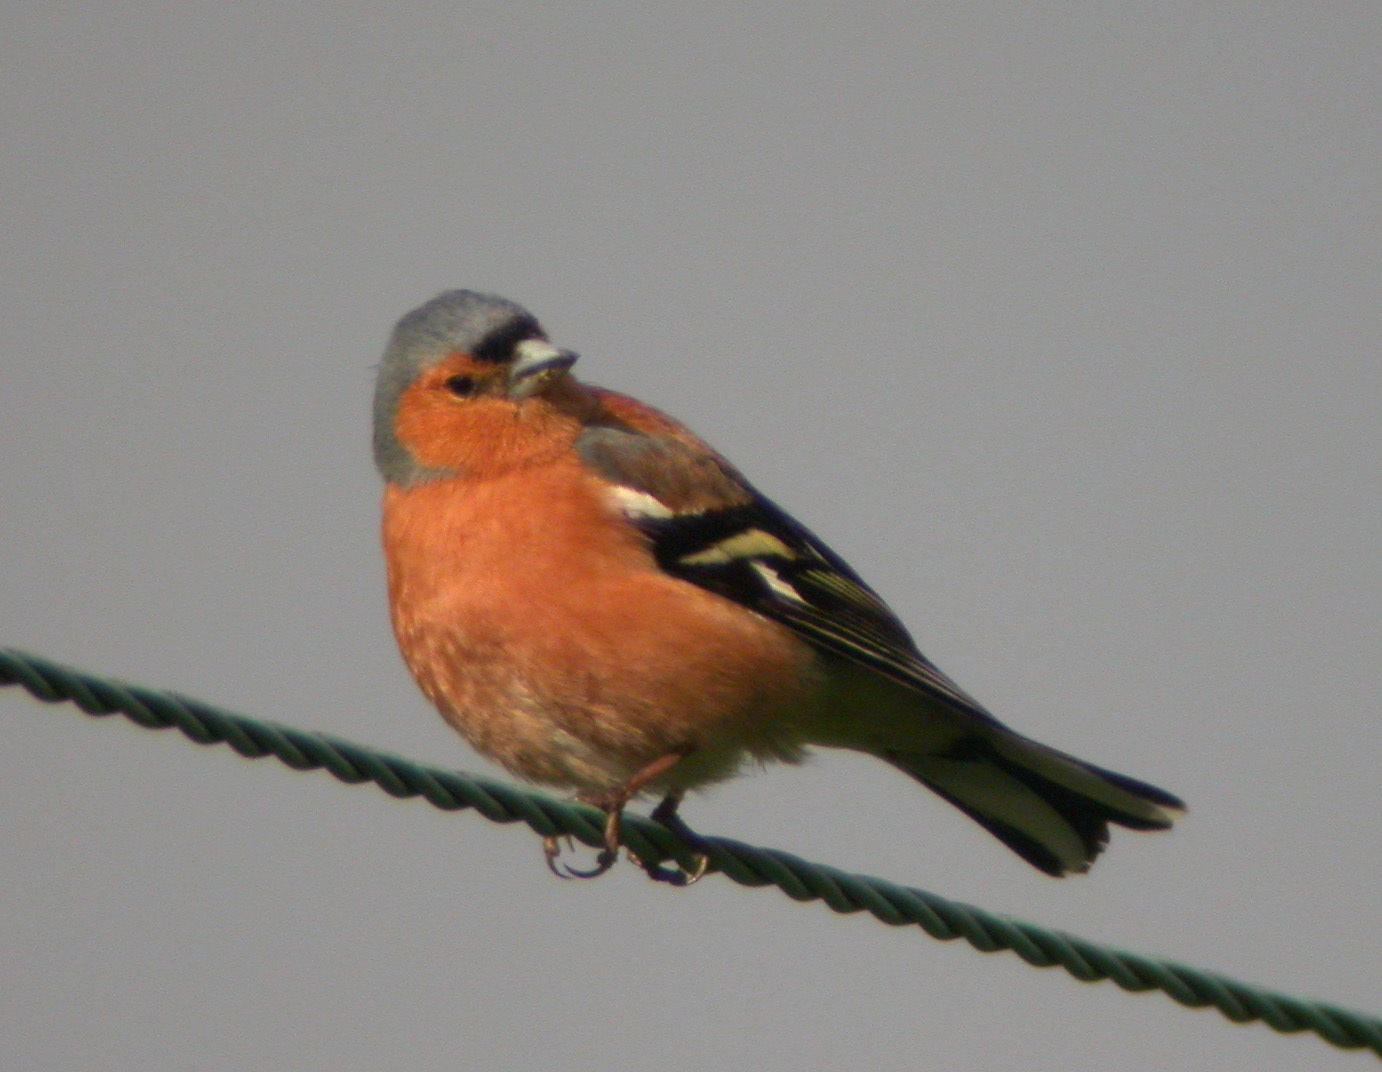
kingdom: Animalia
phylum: Chordata
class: Aves
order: Passeriformes
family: Fringillidae
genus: Fringilla
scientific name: Fringilla coelebs
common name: Common chaffinch
